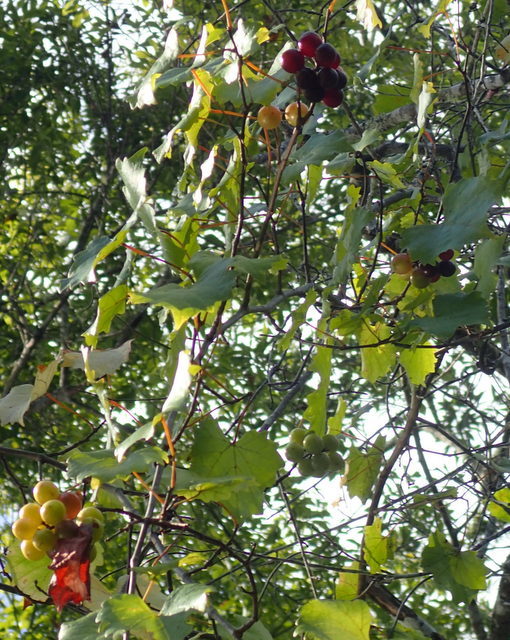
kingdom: Plantae
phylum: Tracheophyta
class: Magnoliopsida
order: Vitales
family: Vitaceae
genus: Vitis
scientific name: Vitis rotundifolia
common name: Muscadine grape
